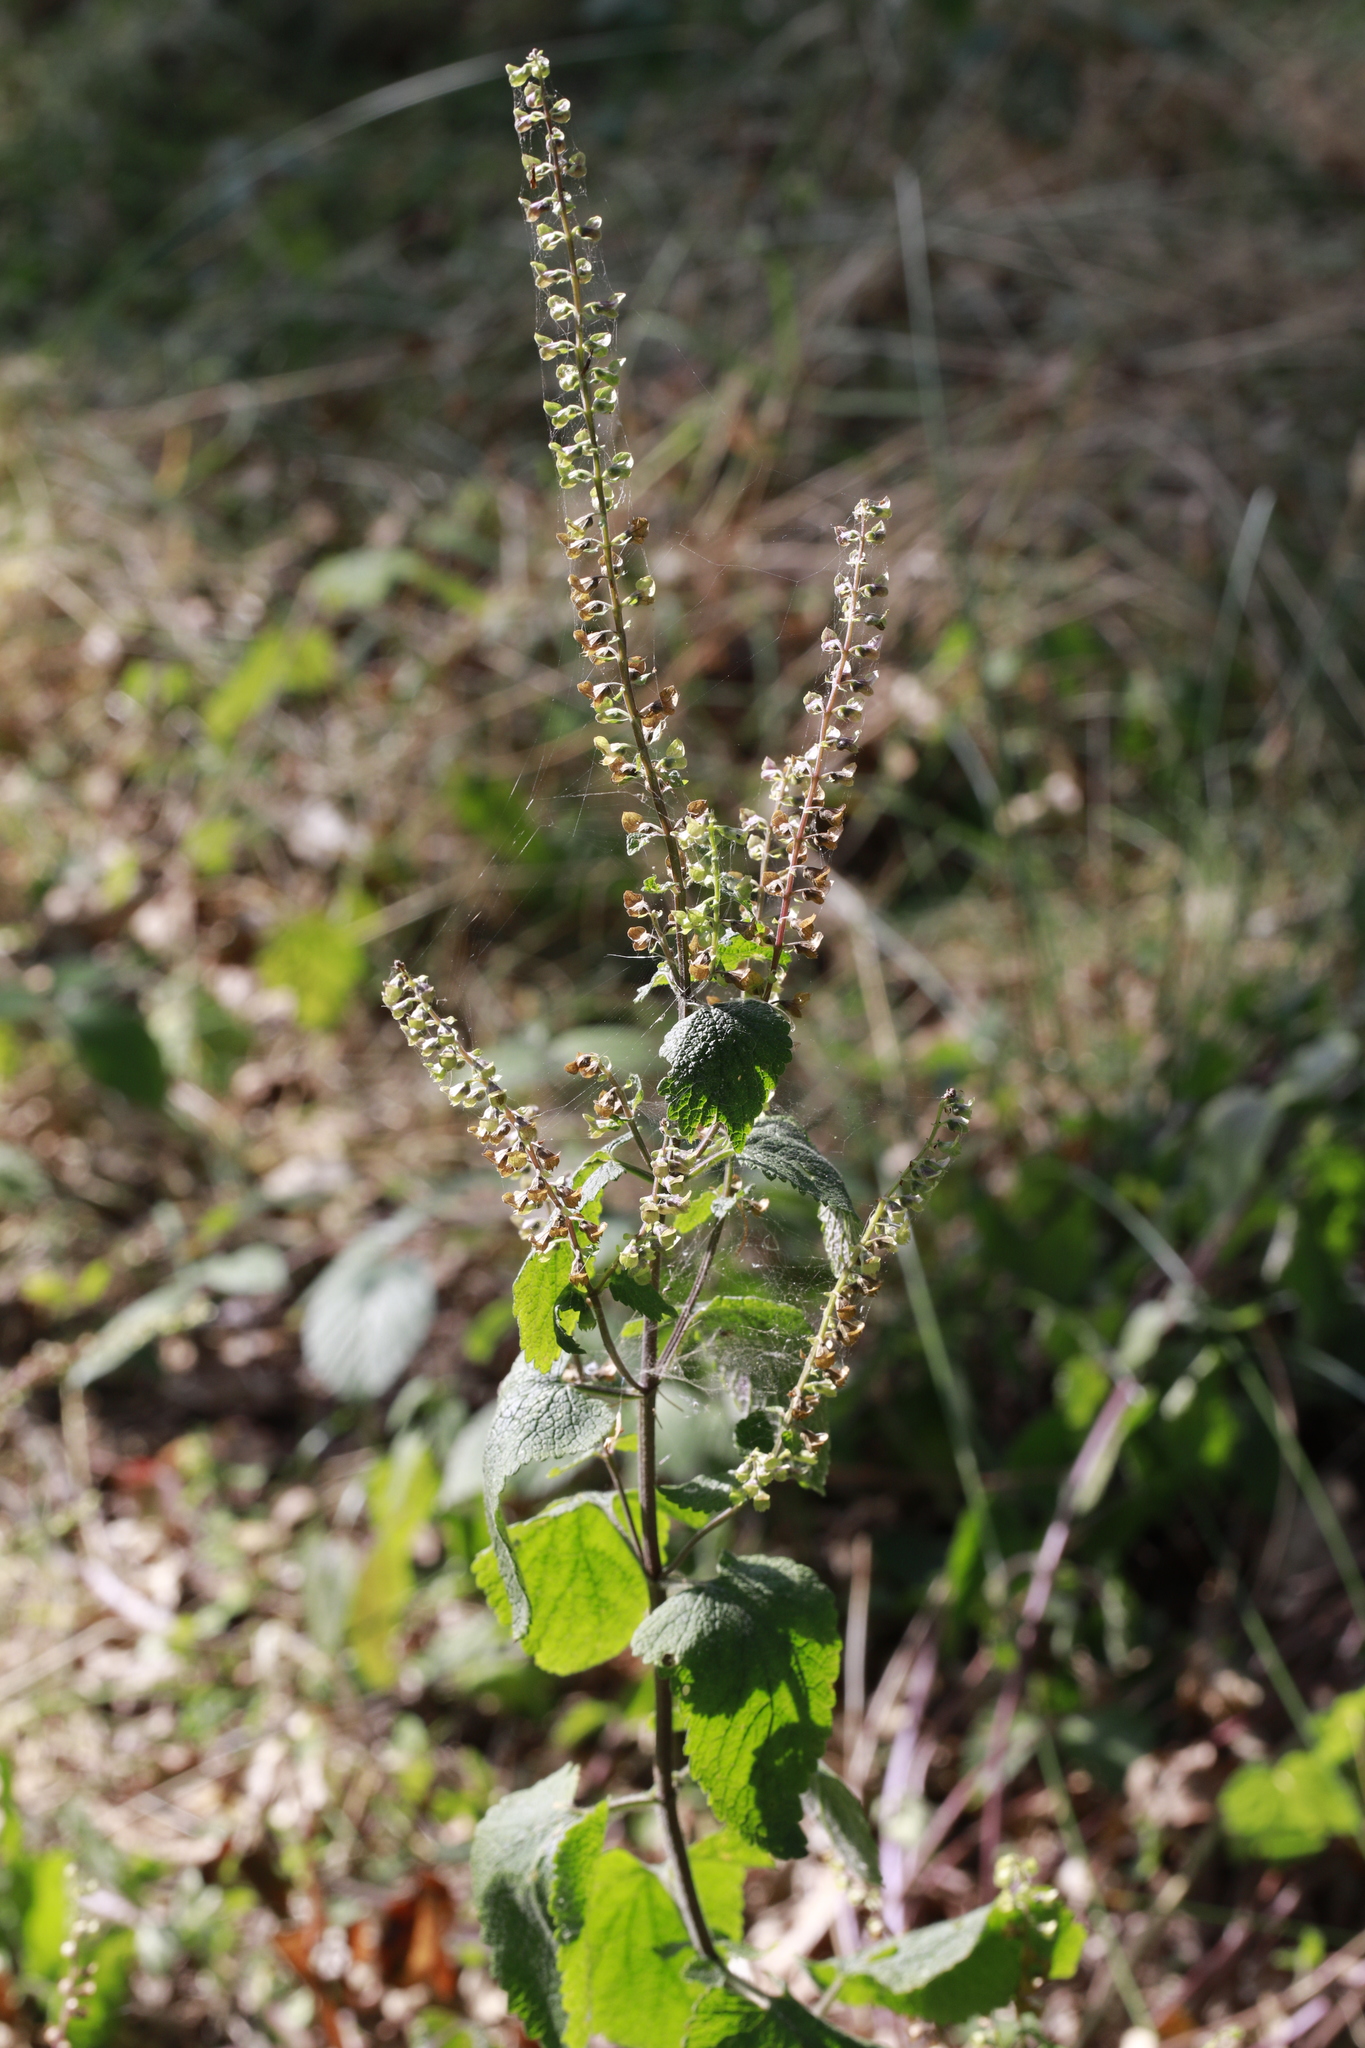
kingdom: Plantae
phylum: Tracheophyta
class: Magnoliopsida
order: Lamiales
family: Lamiaceae
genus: Teucrium
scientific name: Teucrium scorodonia
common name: Woodland germander
